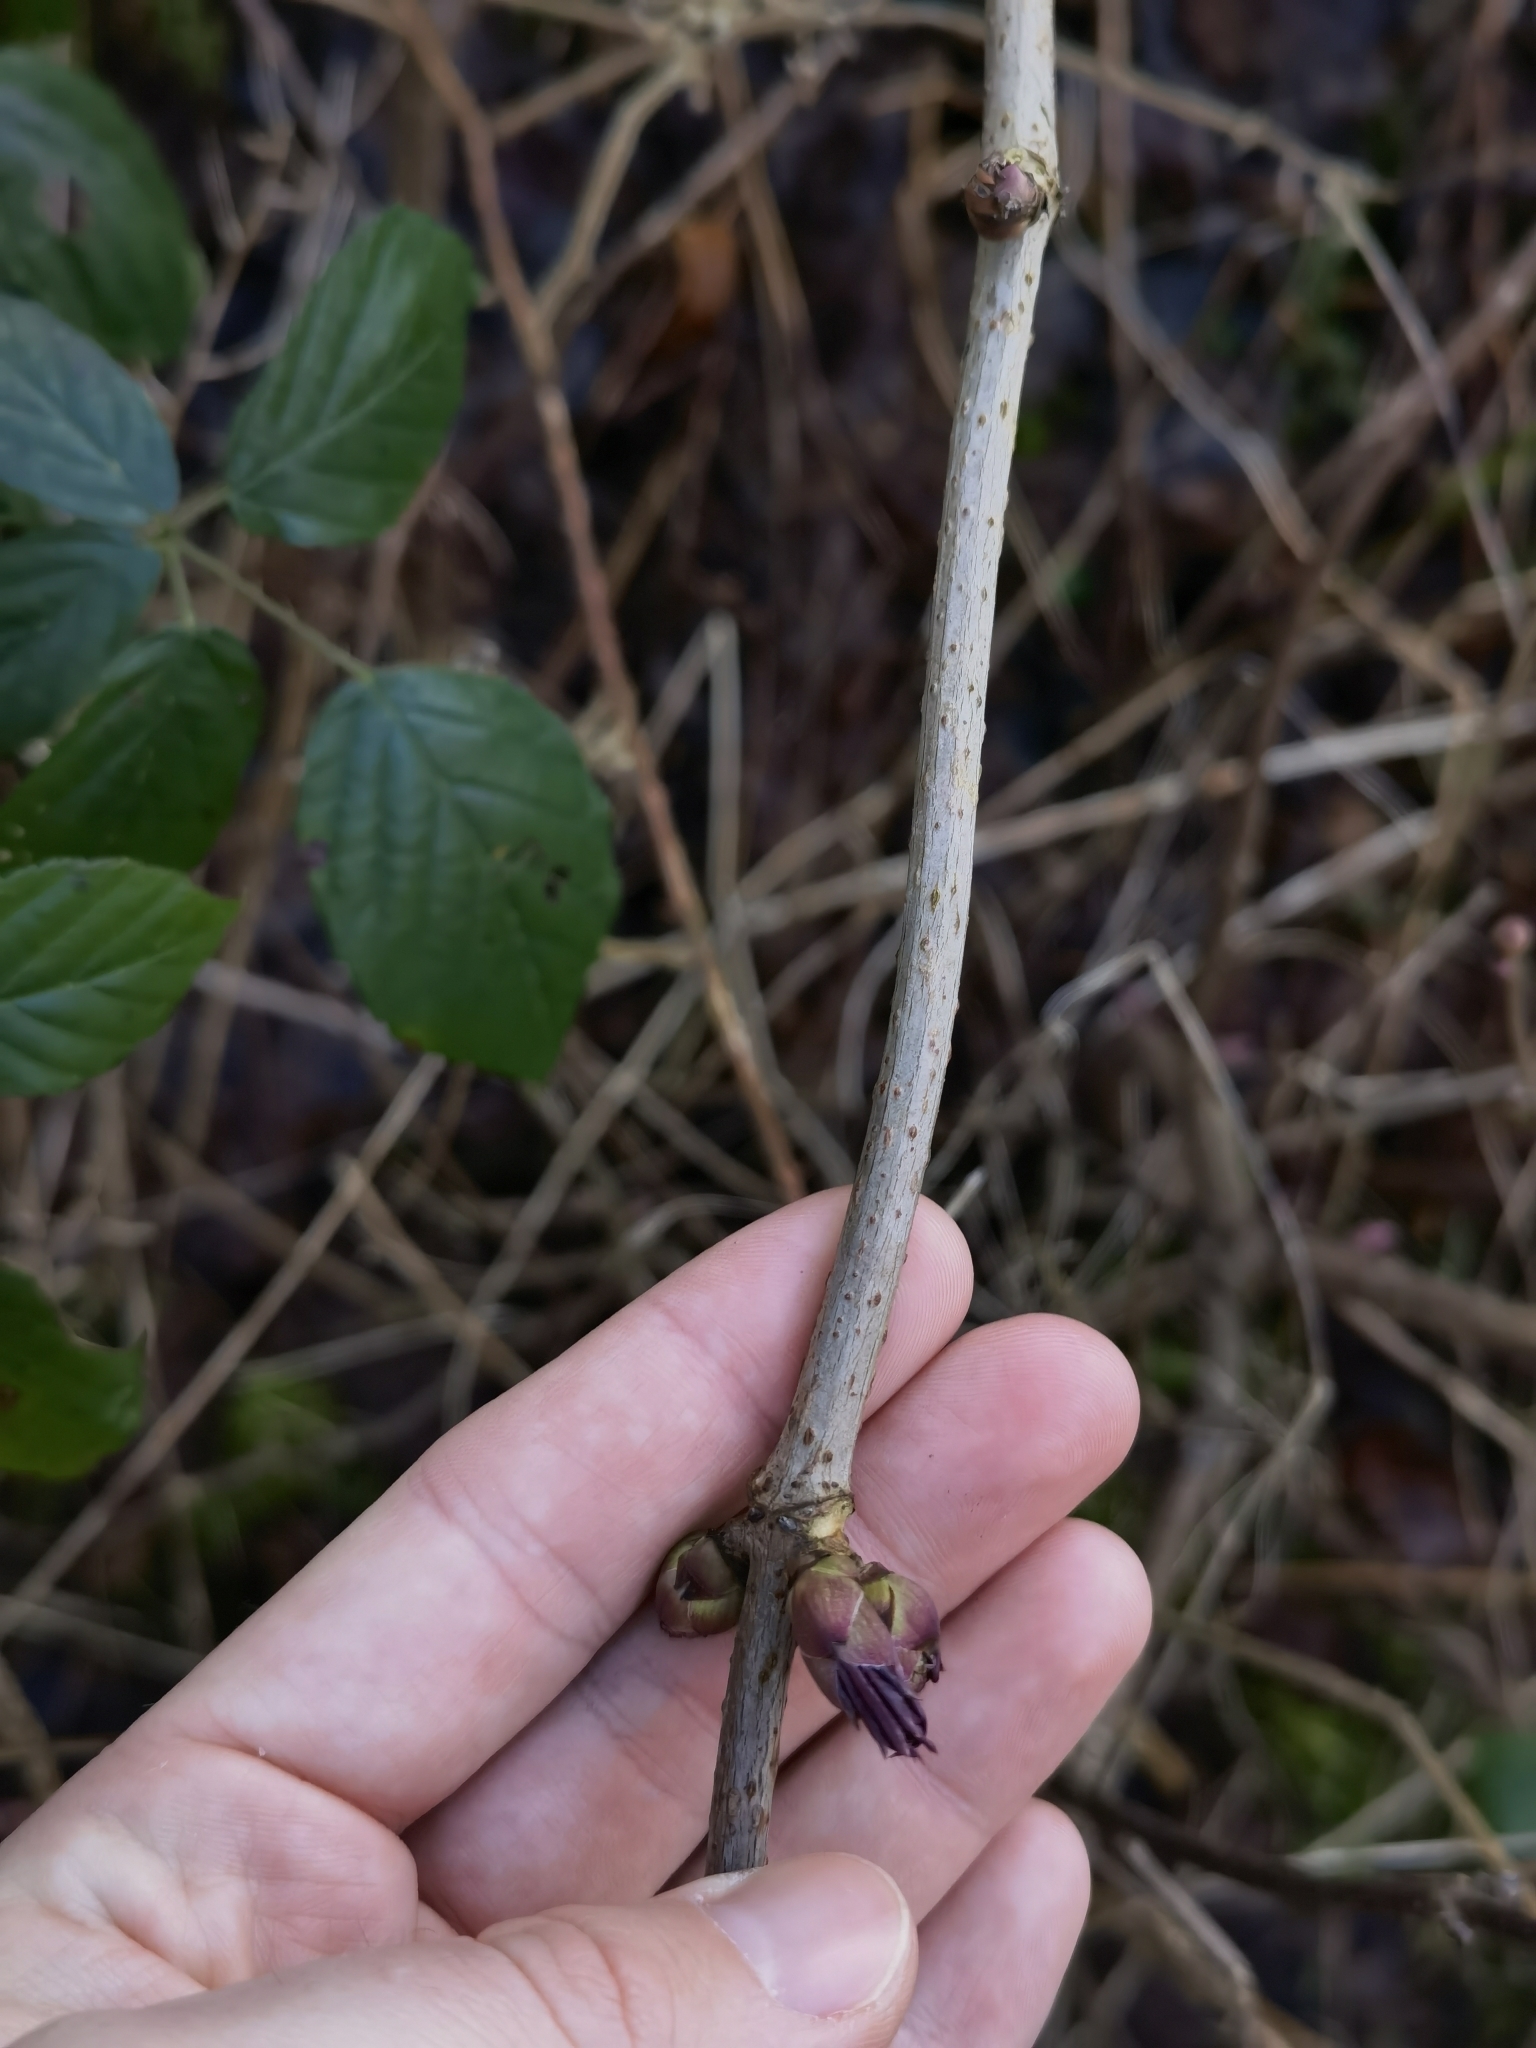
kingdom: Plantae
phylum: Tracheophyta
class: Magnoliopsida
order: Dipsacales
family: Viburnaceae
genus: Sambucus
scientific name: Sambucus racemosa
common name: Red-berried elder
